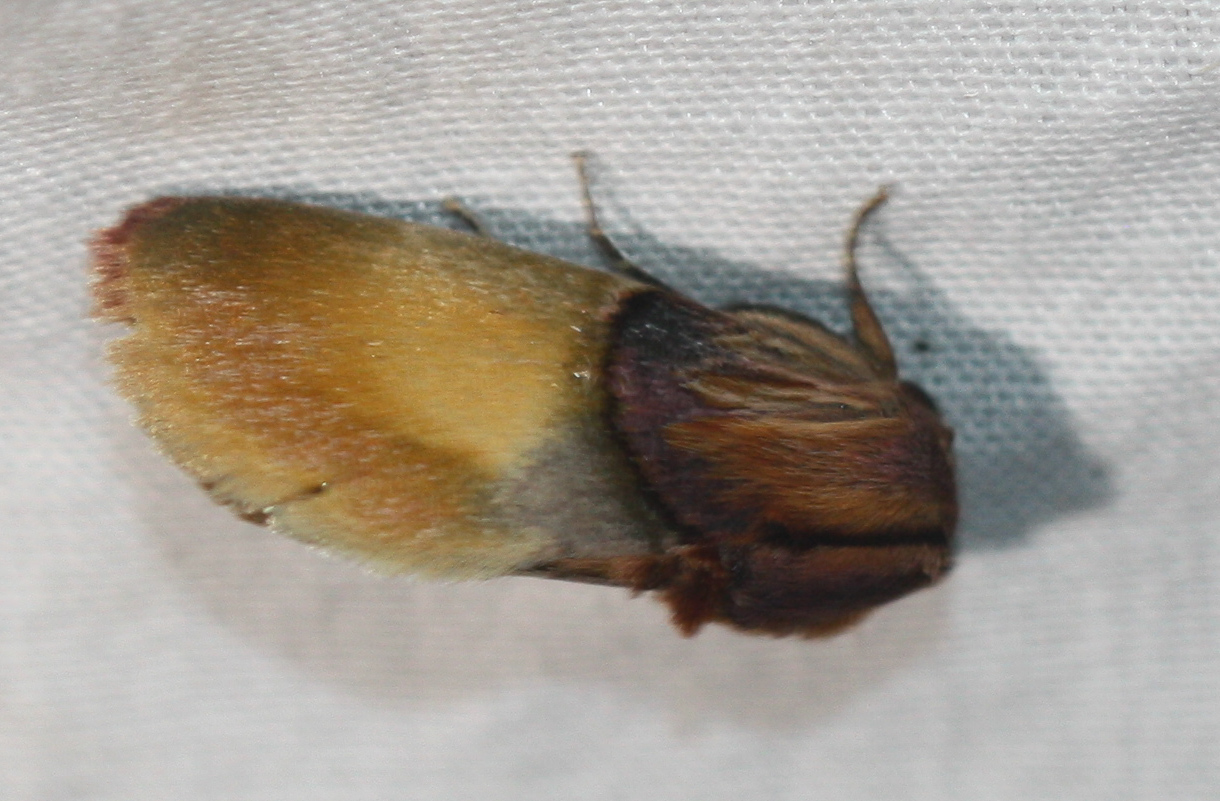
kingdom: Animalia
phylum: Arthropoda
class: Insecta
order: Lepidoptera
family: Noctuidae
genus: Chalcoecia
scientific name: Chalcoecia patricia
